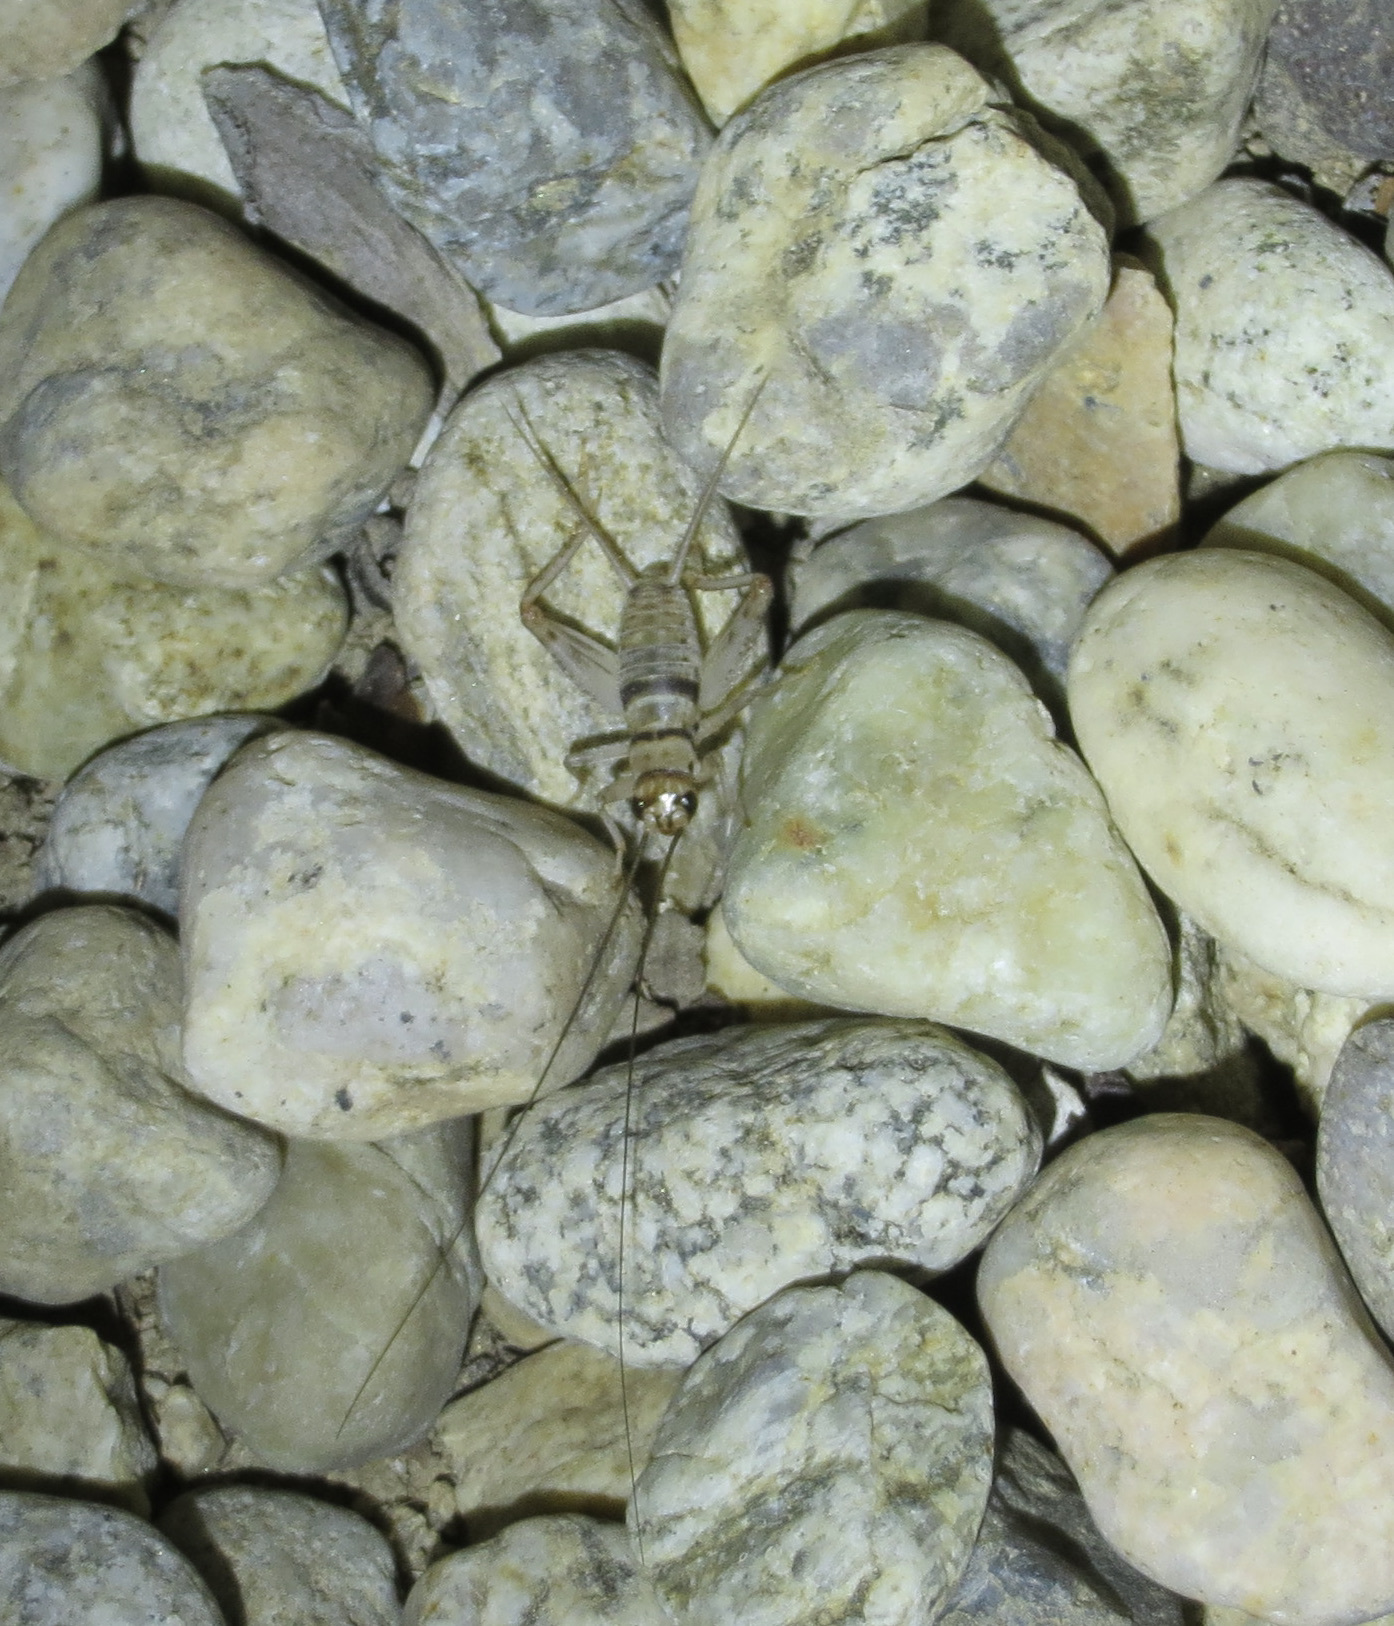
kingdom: Animalia
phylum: Arthropoda
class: Insecta
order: Orthoptera
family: Gryllidae
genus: Gryllodes
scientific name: Gryllodes sigillatus
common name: Tropical house cricket
